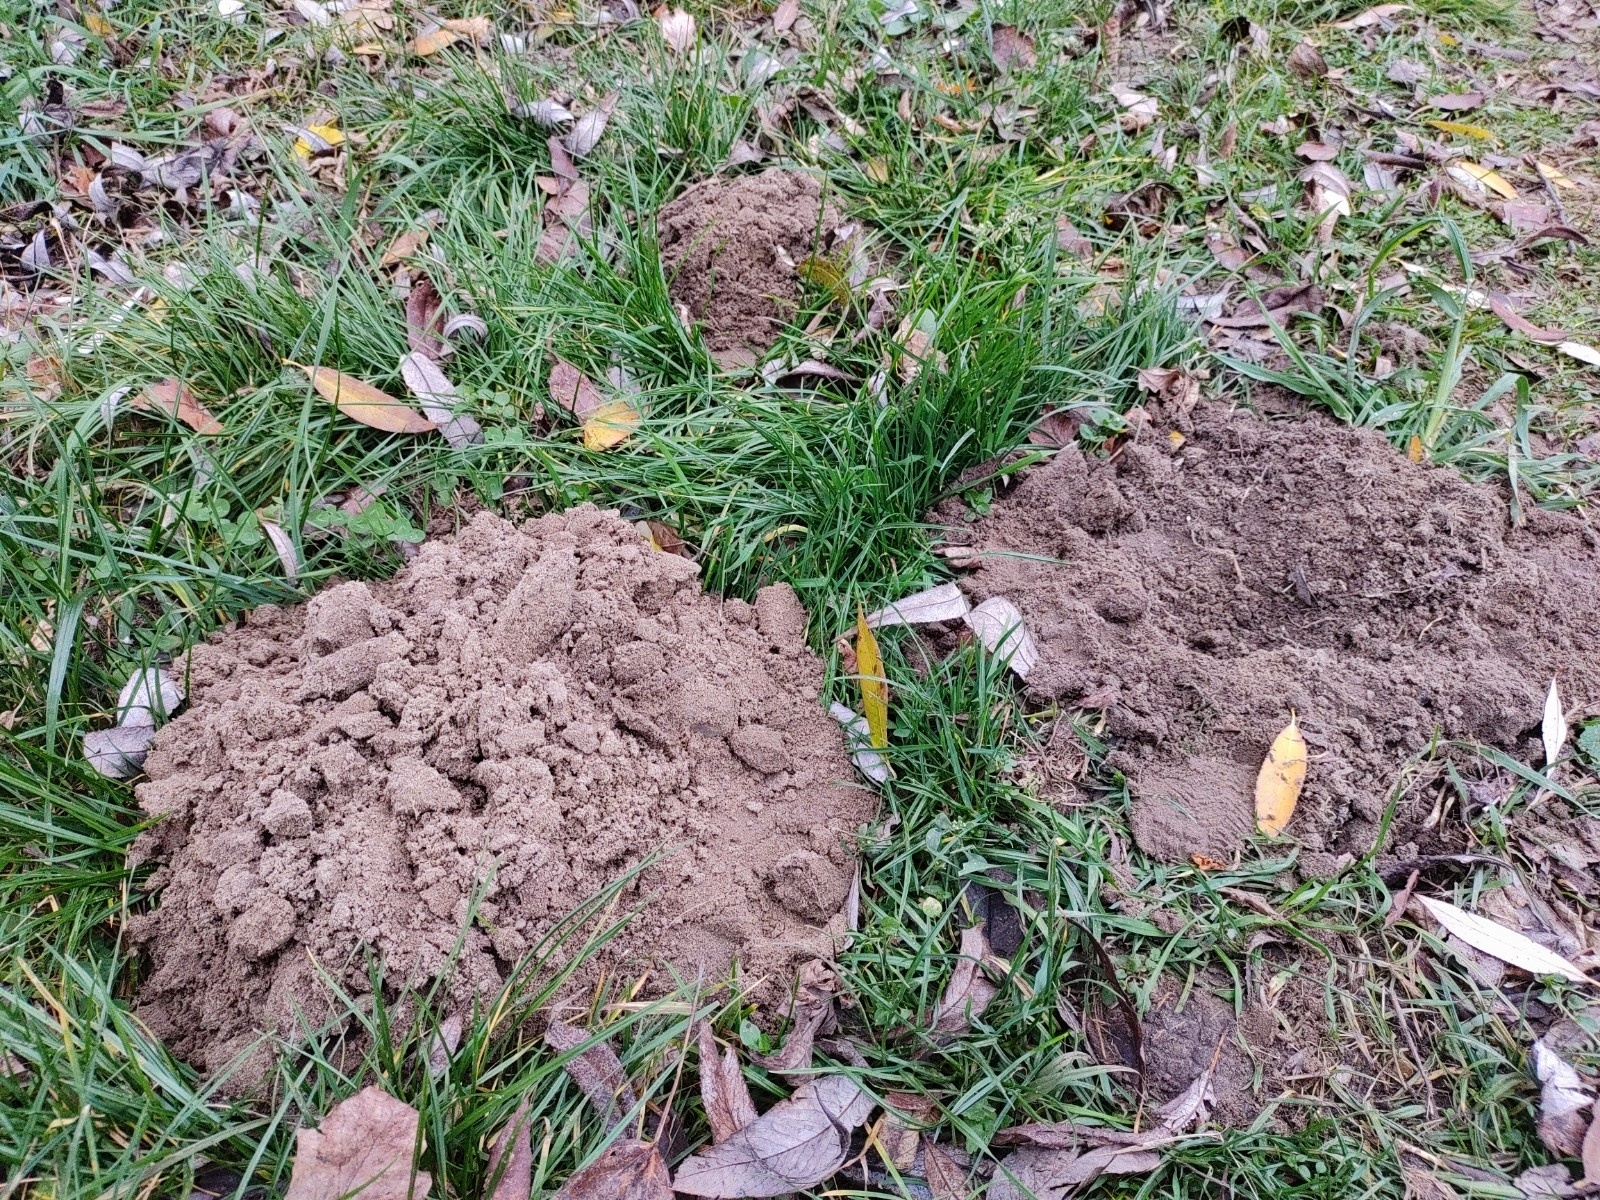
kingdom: Animalia
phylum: Chordata
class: Mammalia
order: Soricomorpha
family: Talpidae
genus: Talpa
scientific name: Talpa europaea
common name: European mole
